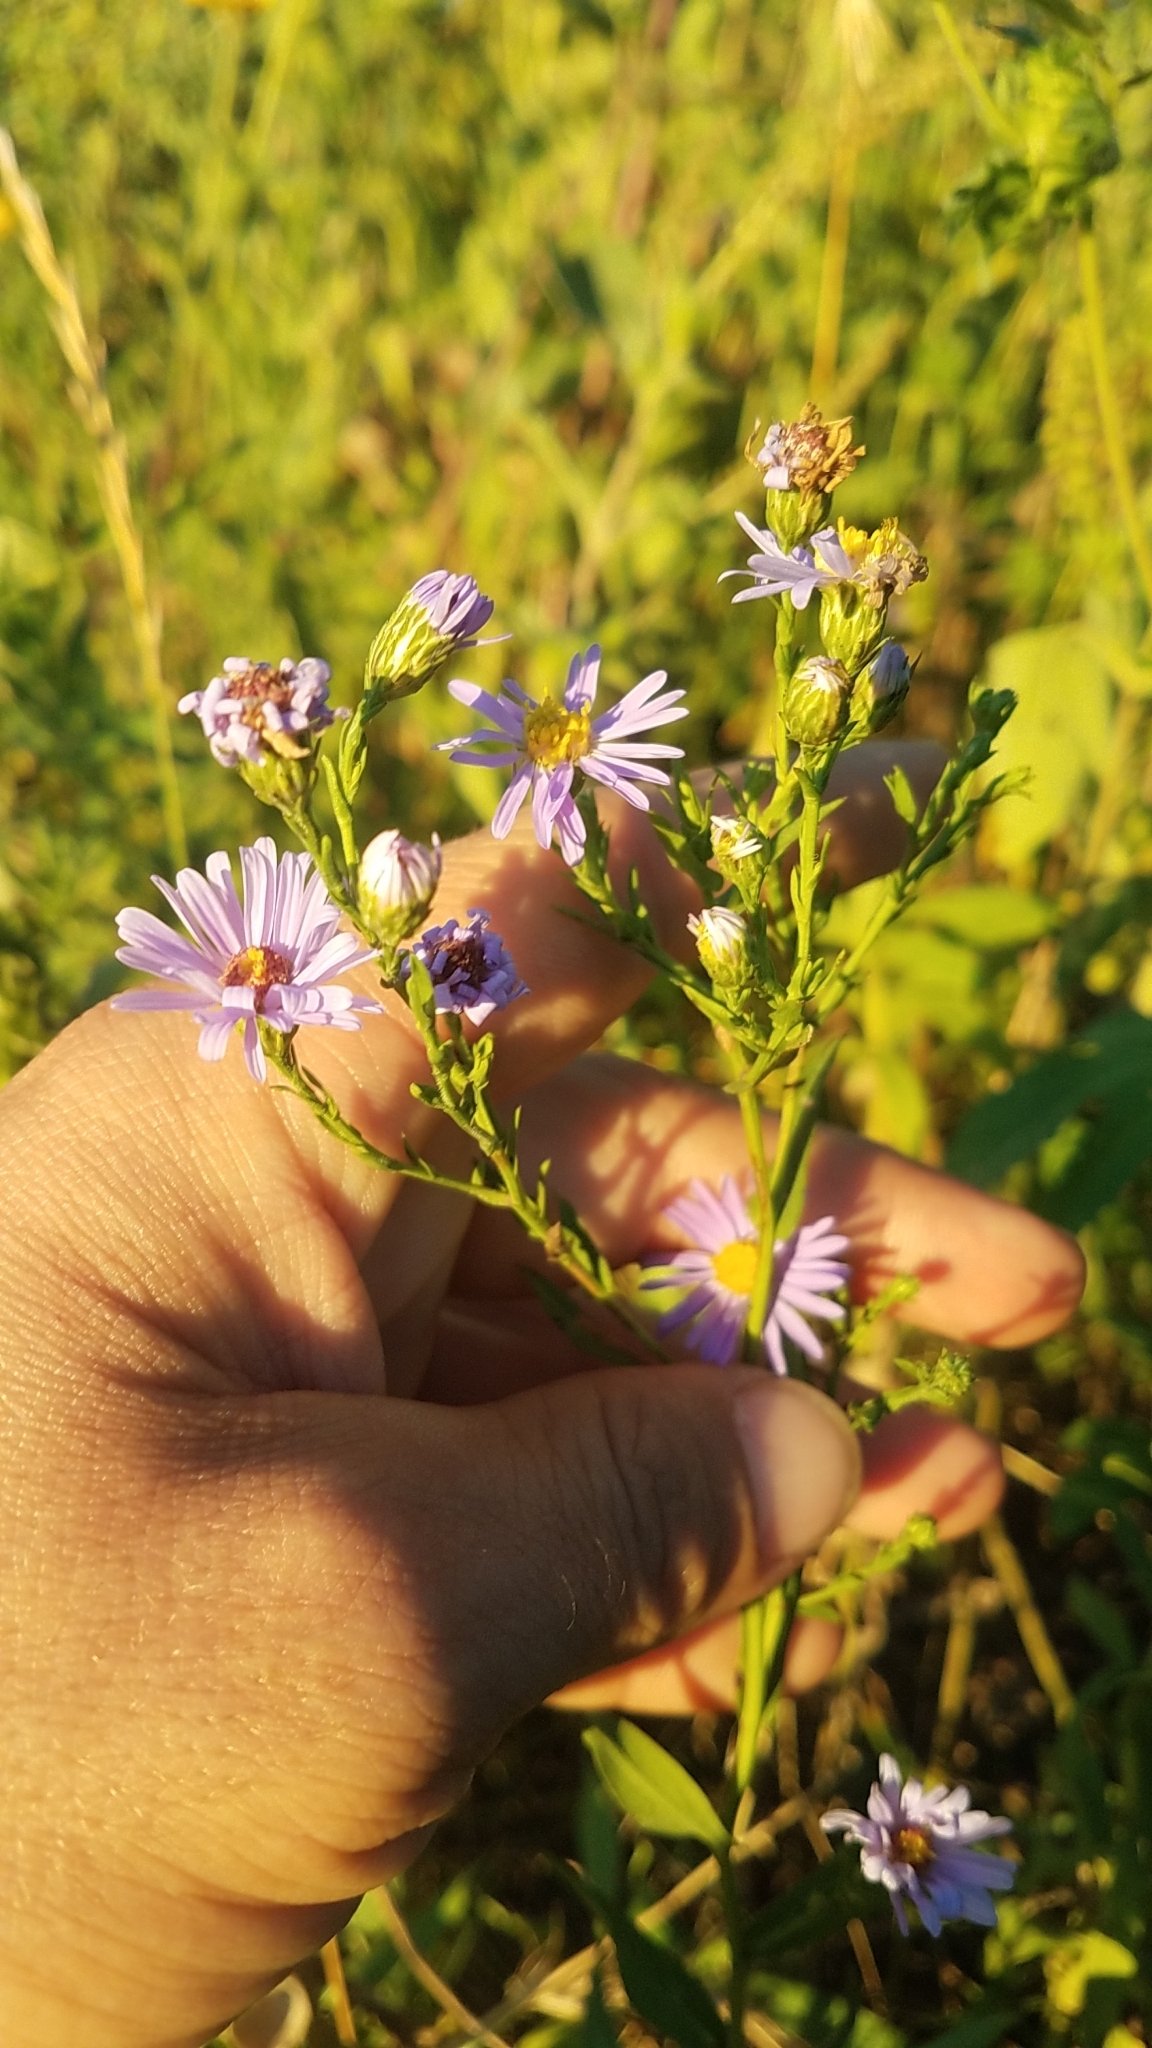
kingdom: Plantae
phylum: Tracheophyta
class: Magnoliopsida
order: Asterales
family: Asteraceae
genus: Symphyotrichum
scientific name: Symphyotrichum laeve
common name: Glaucous aster
